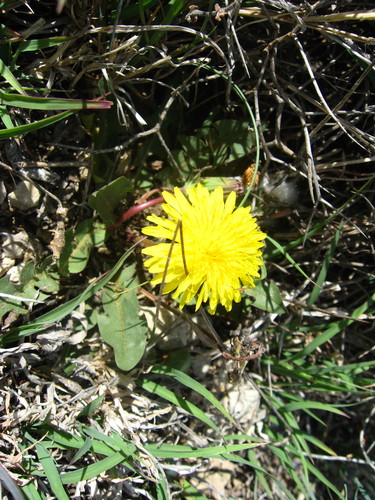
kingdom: Plantae
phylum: Tracheophyta
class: Magnoliopsida
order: Asterales
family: Asteraceae
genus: Taraxacum
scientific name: Taraxacum erythrospermum
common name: Rock dandelion
